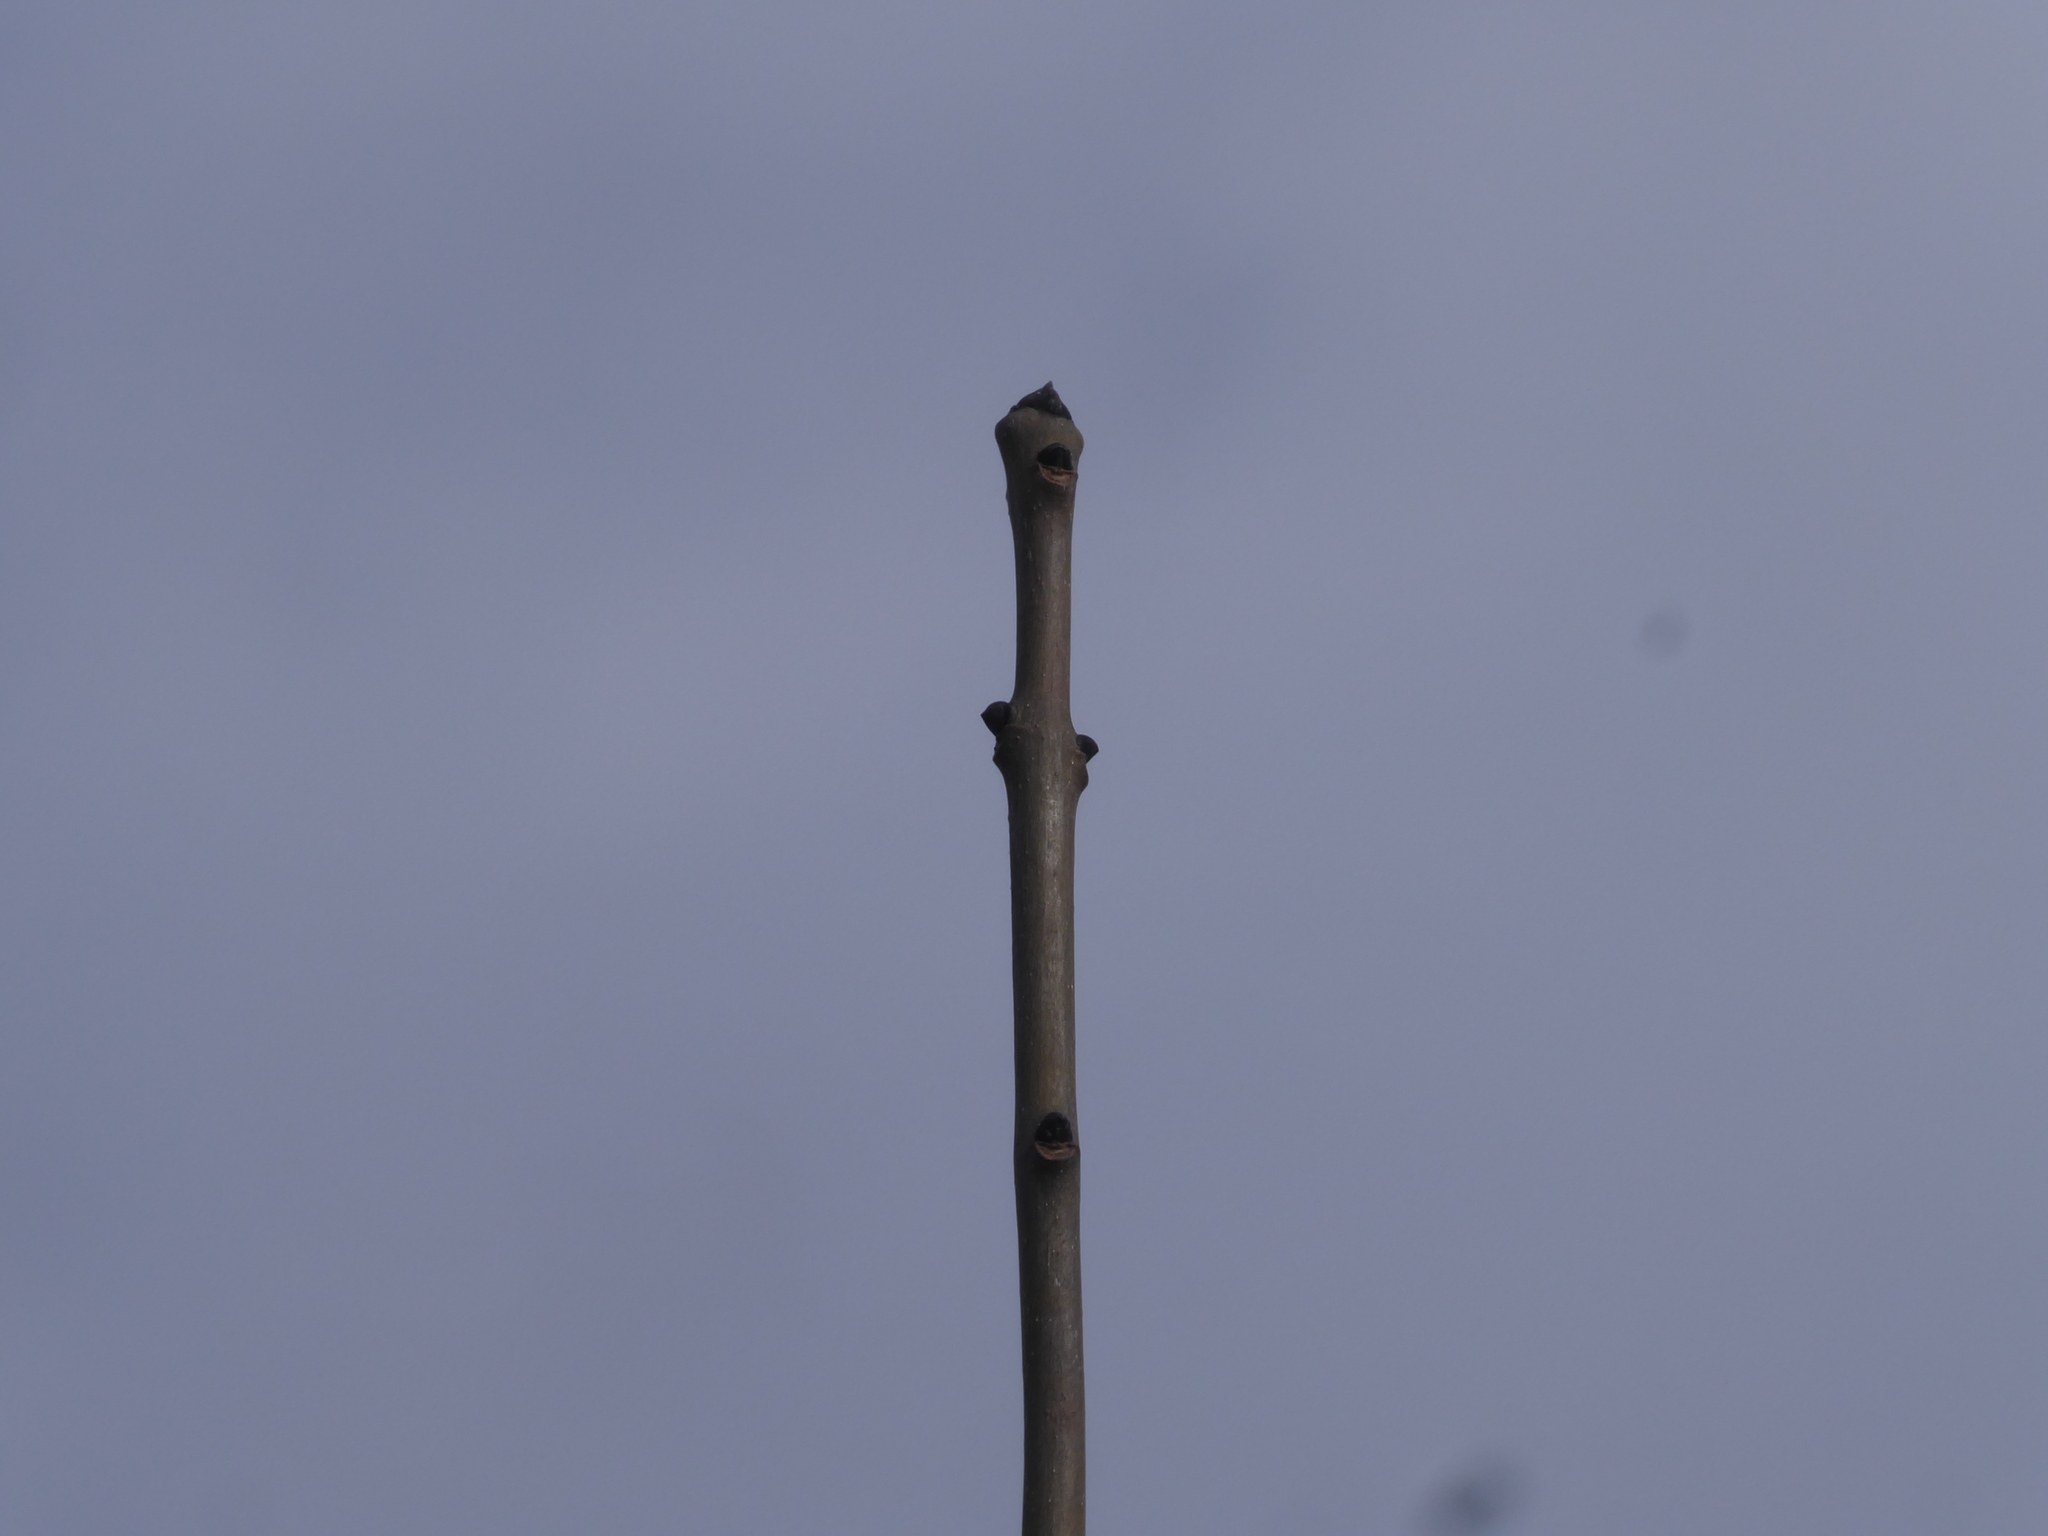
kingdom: Plantae
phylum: Tracheophyta
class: Magnoliopsida
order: Lamiales
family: Oleaceae
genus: Fraxinus
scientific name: Fraxinus excelsior
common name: European ash
